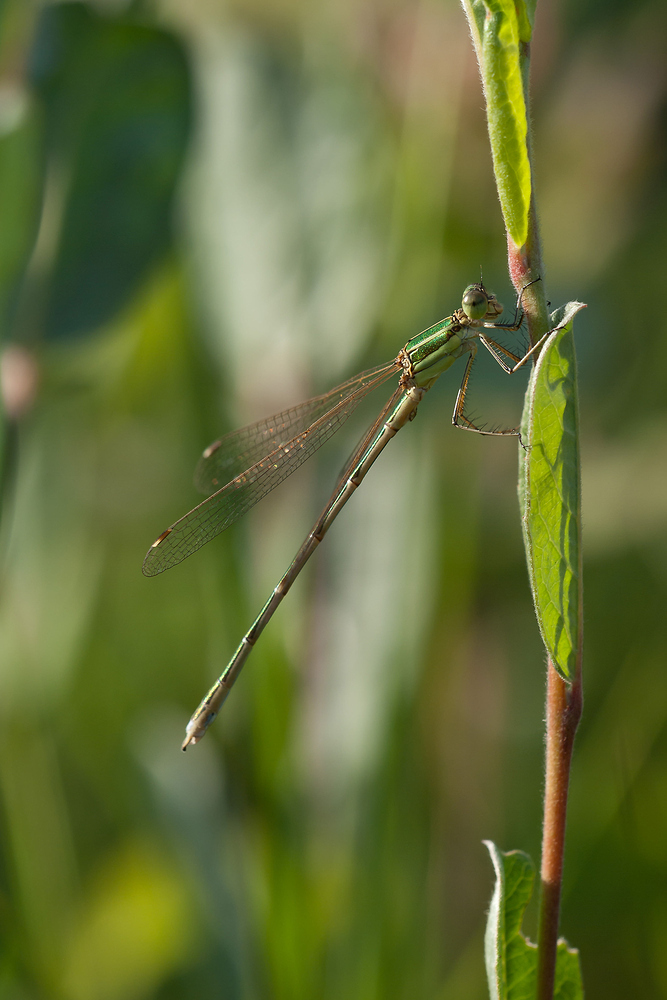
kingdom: Animalia
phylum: Arthropoda
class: Insecta
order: Odonata
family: Lestidae
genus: Lestes
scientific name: Lestes barbarus
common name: Migrant spreadwing
